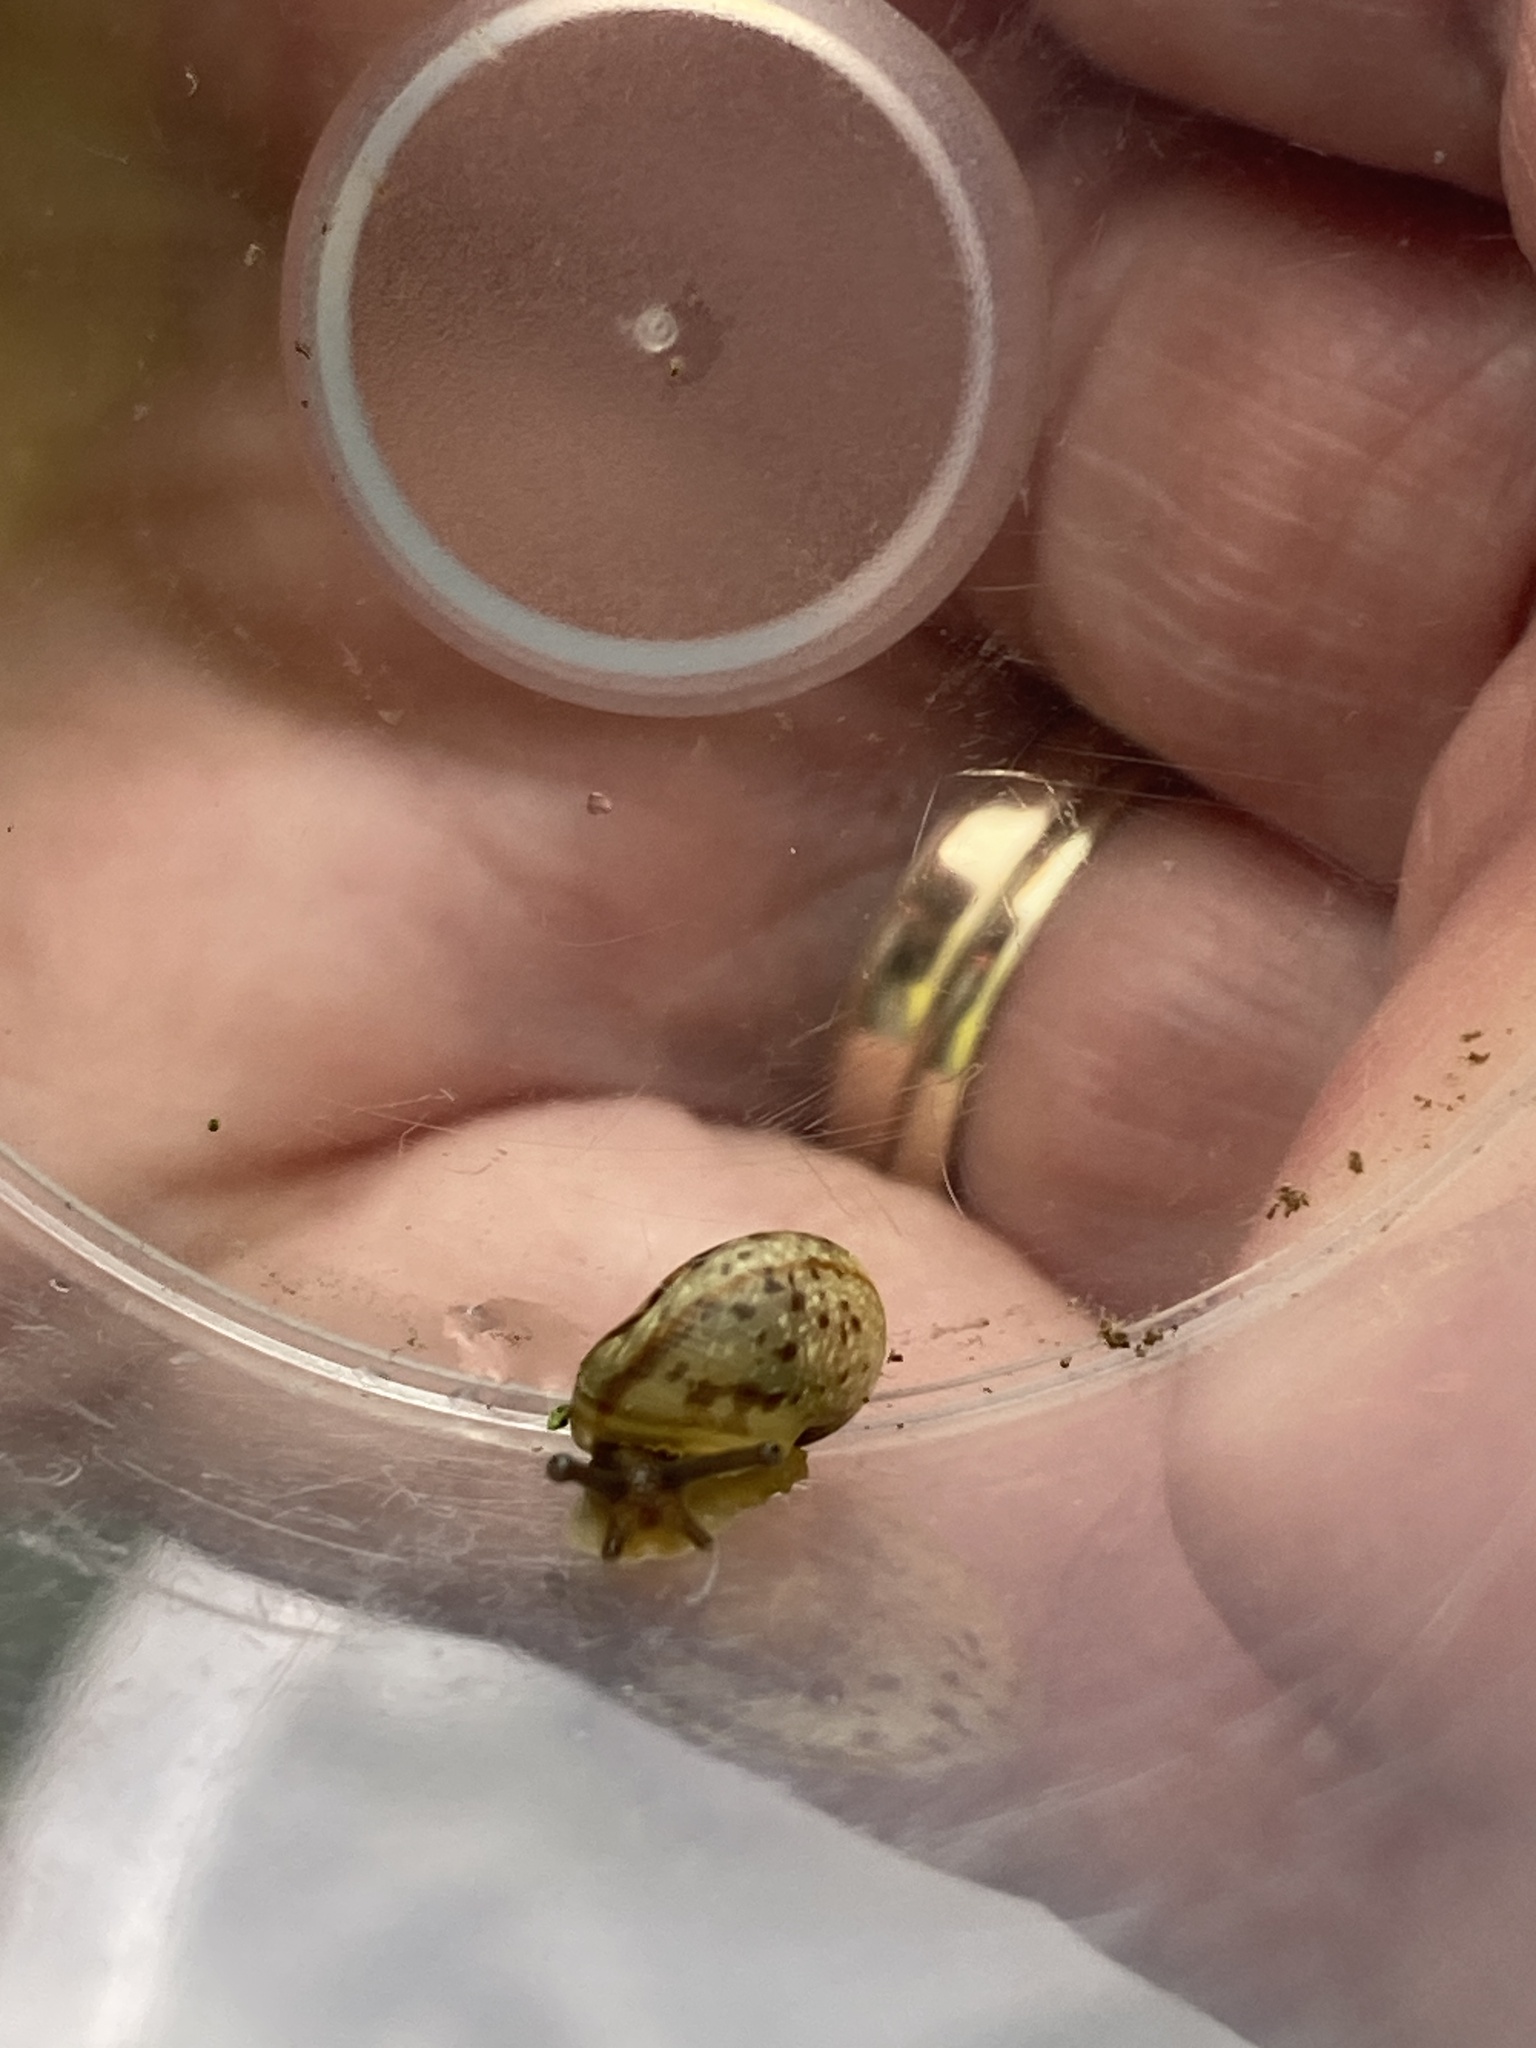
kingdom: Animalia
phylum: Mollusca
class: Gastropoda
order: Stylommatophora
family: Helicidae
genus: Cornu
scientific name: Cornu aspersum
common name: Brown garden snail
